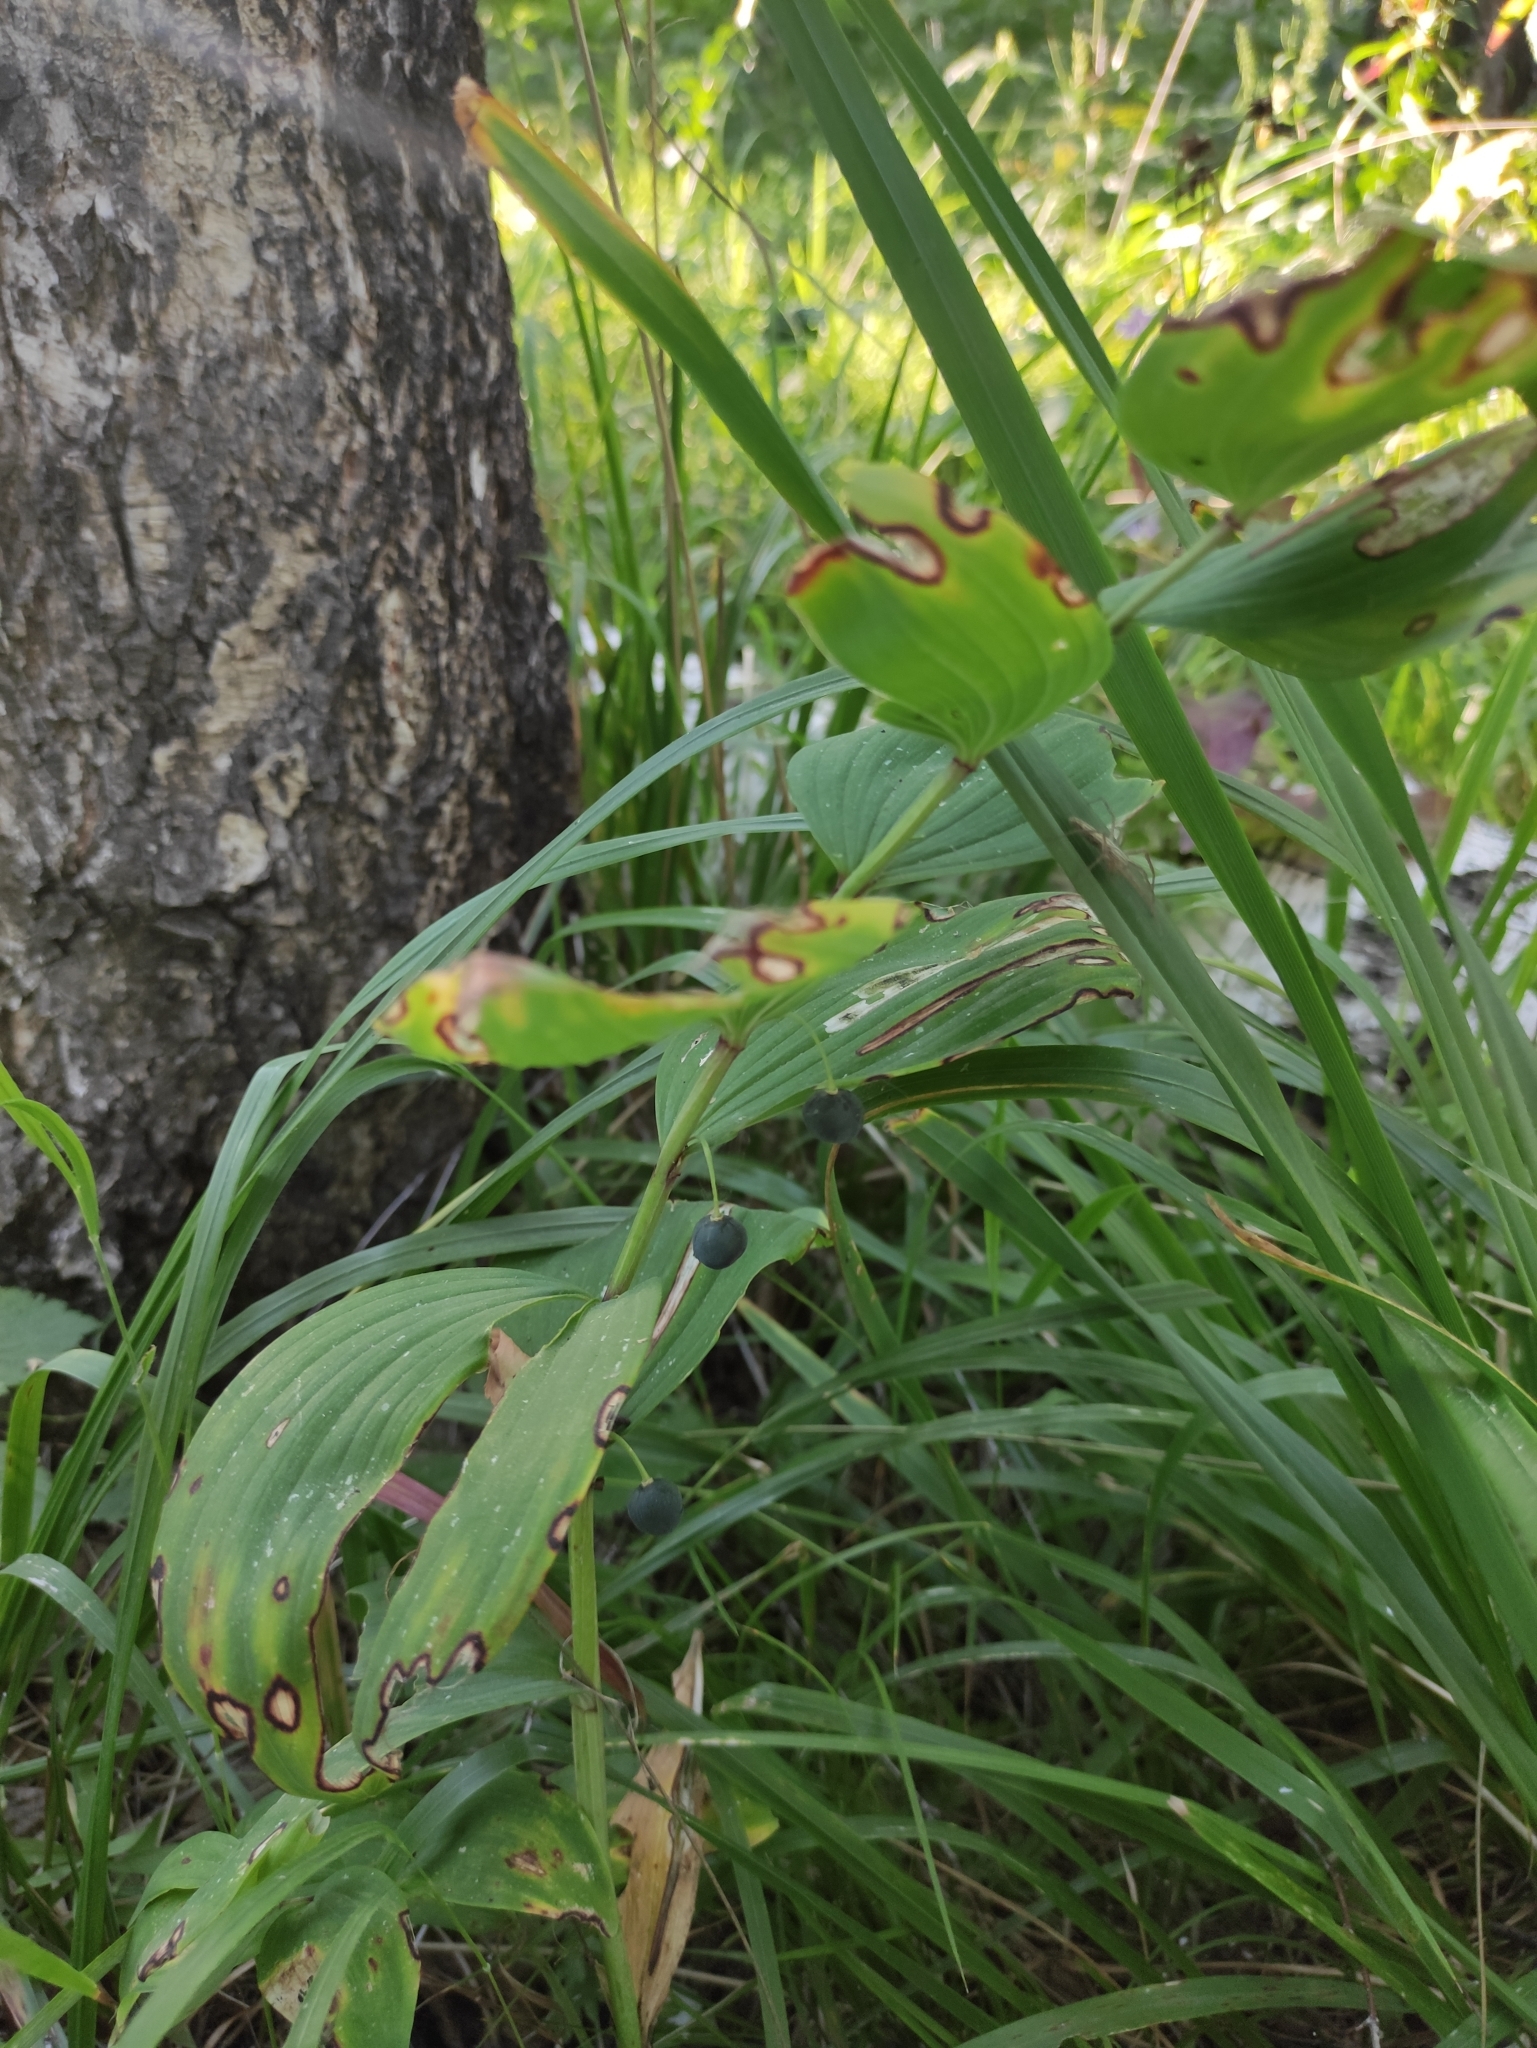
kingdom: Plantae
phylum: Tracheophyta
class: Liliopsida
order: Asparagales
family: Asparagaceae
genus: Polygonatum
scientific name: Polygonatum odoratum
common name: Angular solomon's-seal
